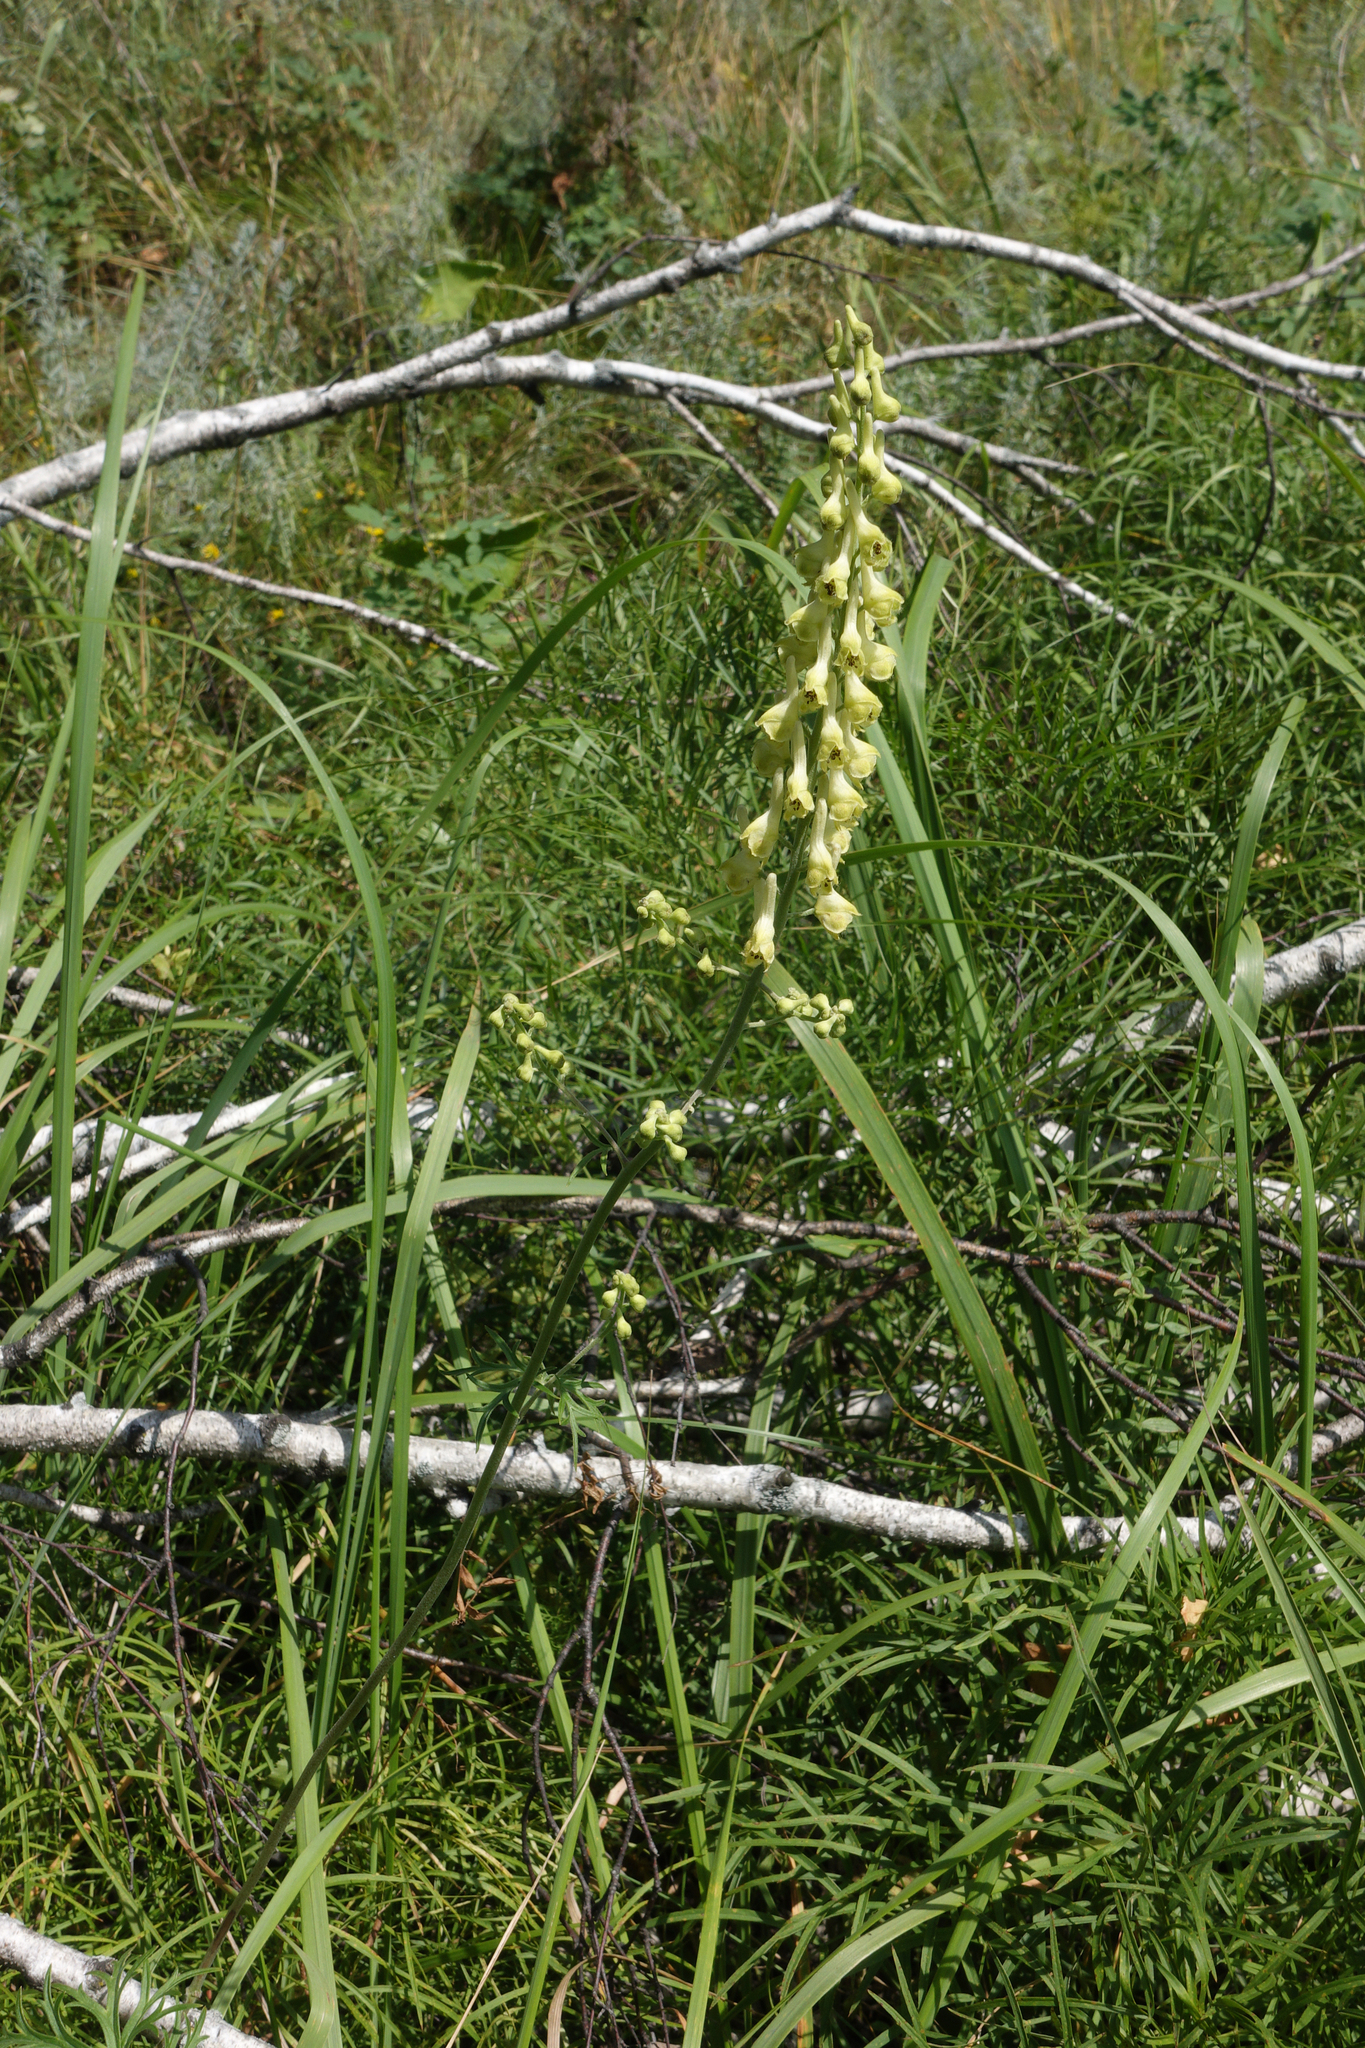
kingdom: Plantae
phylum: Tracheophyta
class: Magnoliopsida
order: Ranunculales
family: Ranunculaceae
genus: Aconitum
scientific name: Aconitum barbatum
